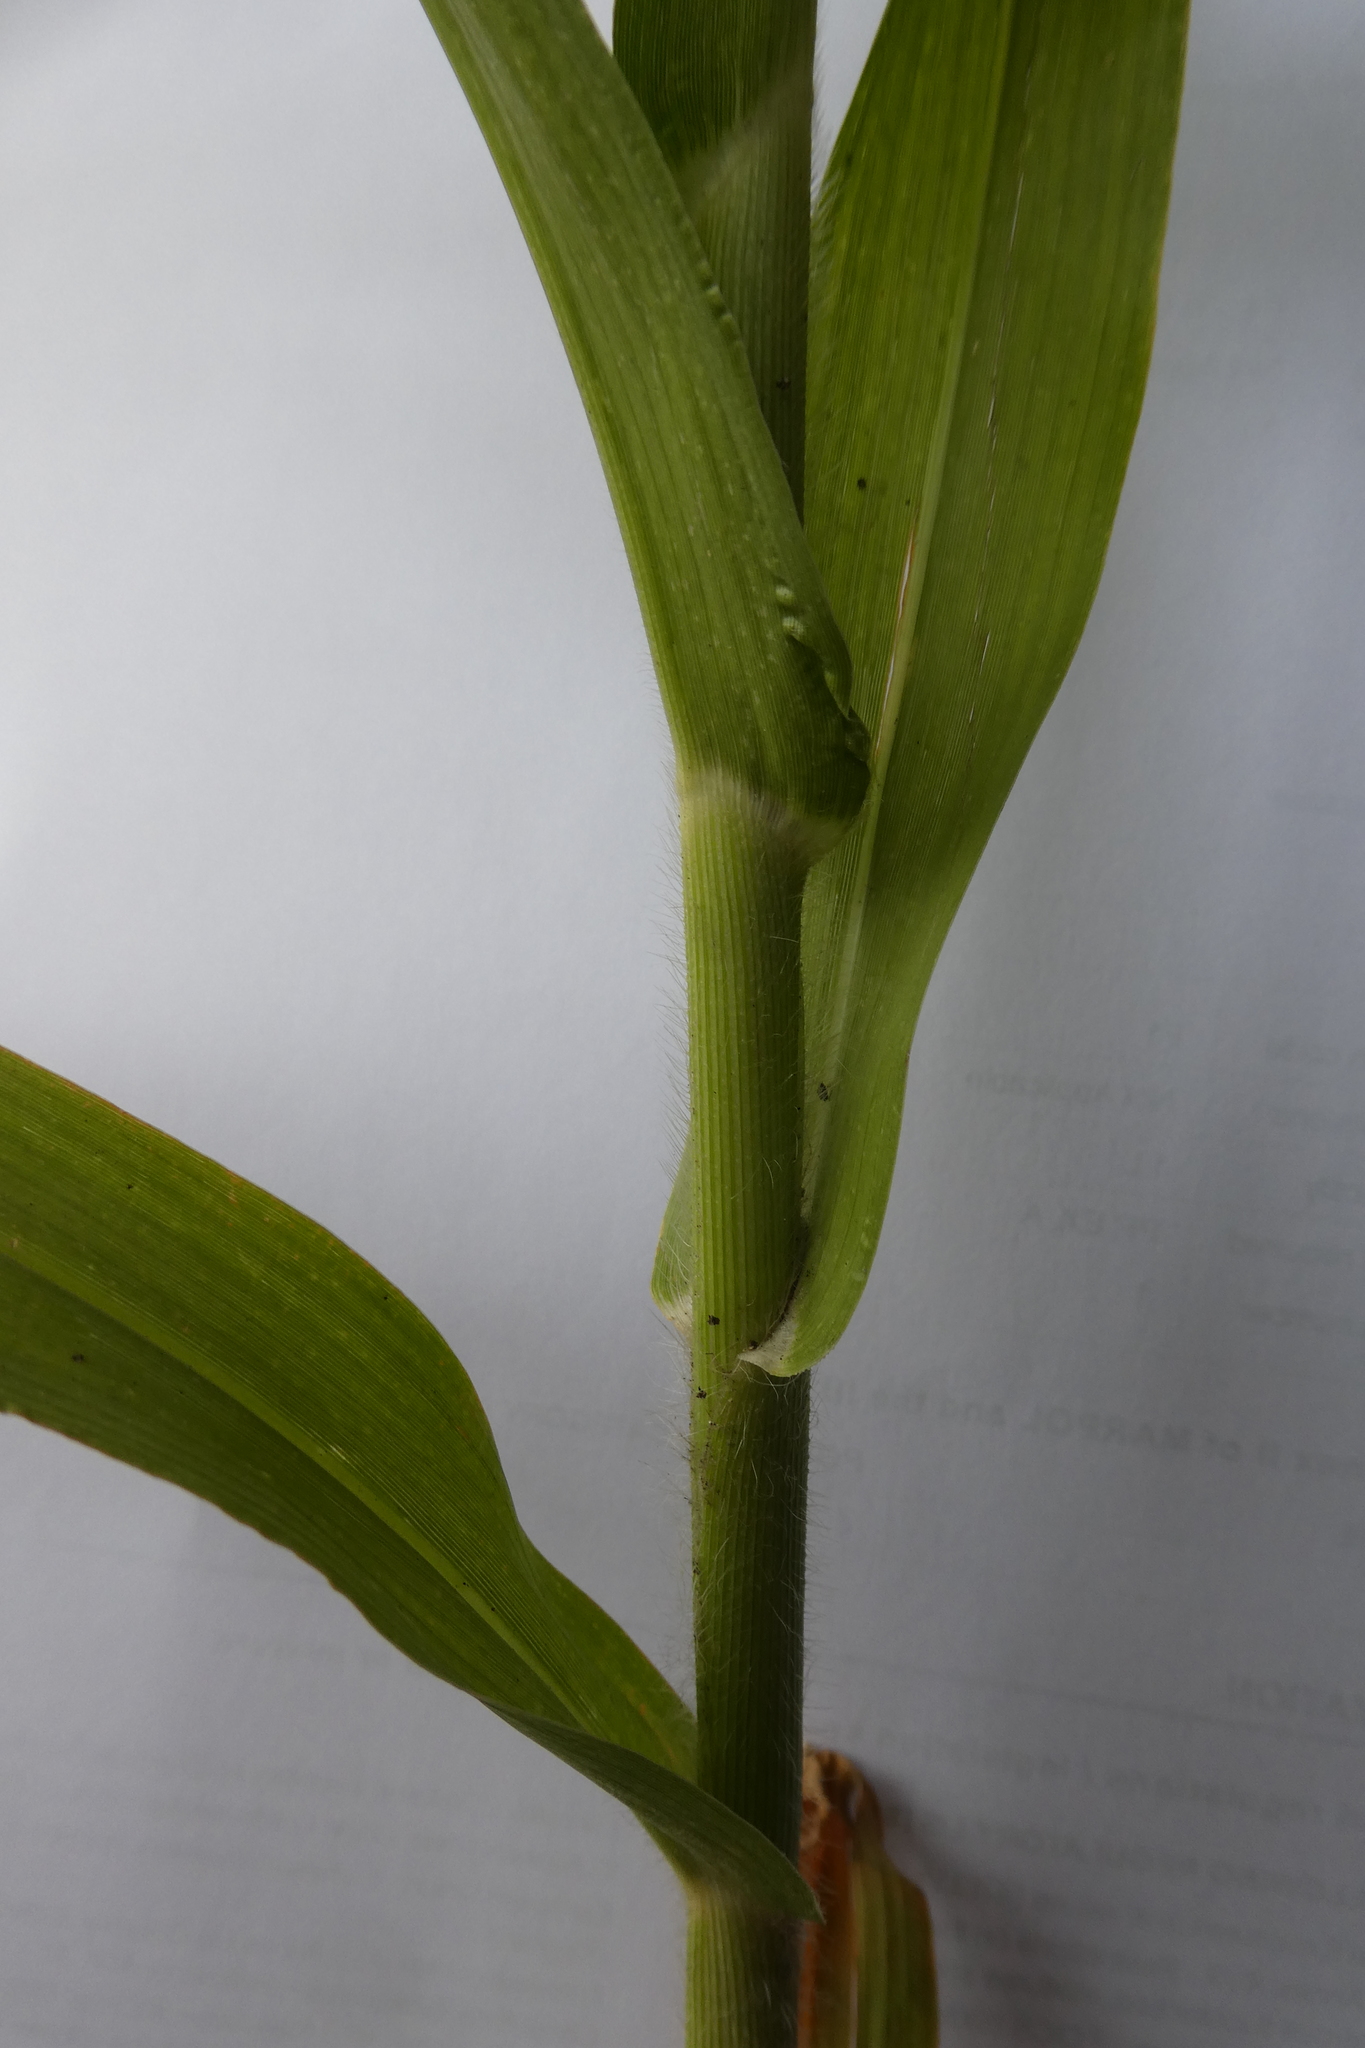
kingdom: Plantae
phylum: Tracheophyta
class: Liliopsida
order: Poales
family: Poaceae
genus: Panicum
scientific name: Panicum miliaceum
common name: Common millet
